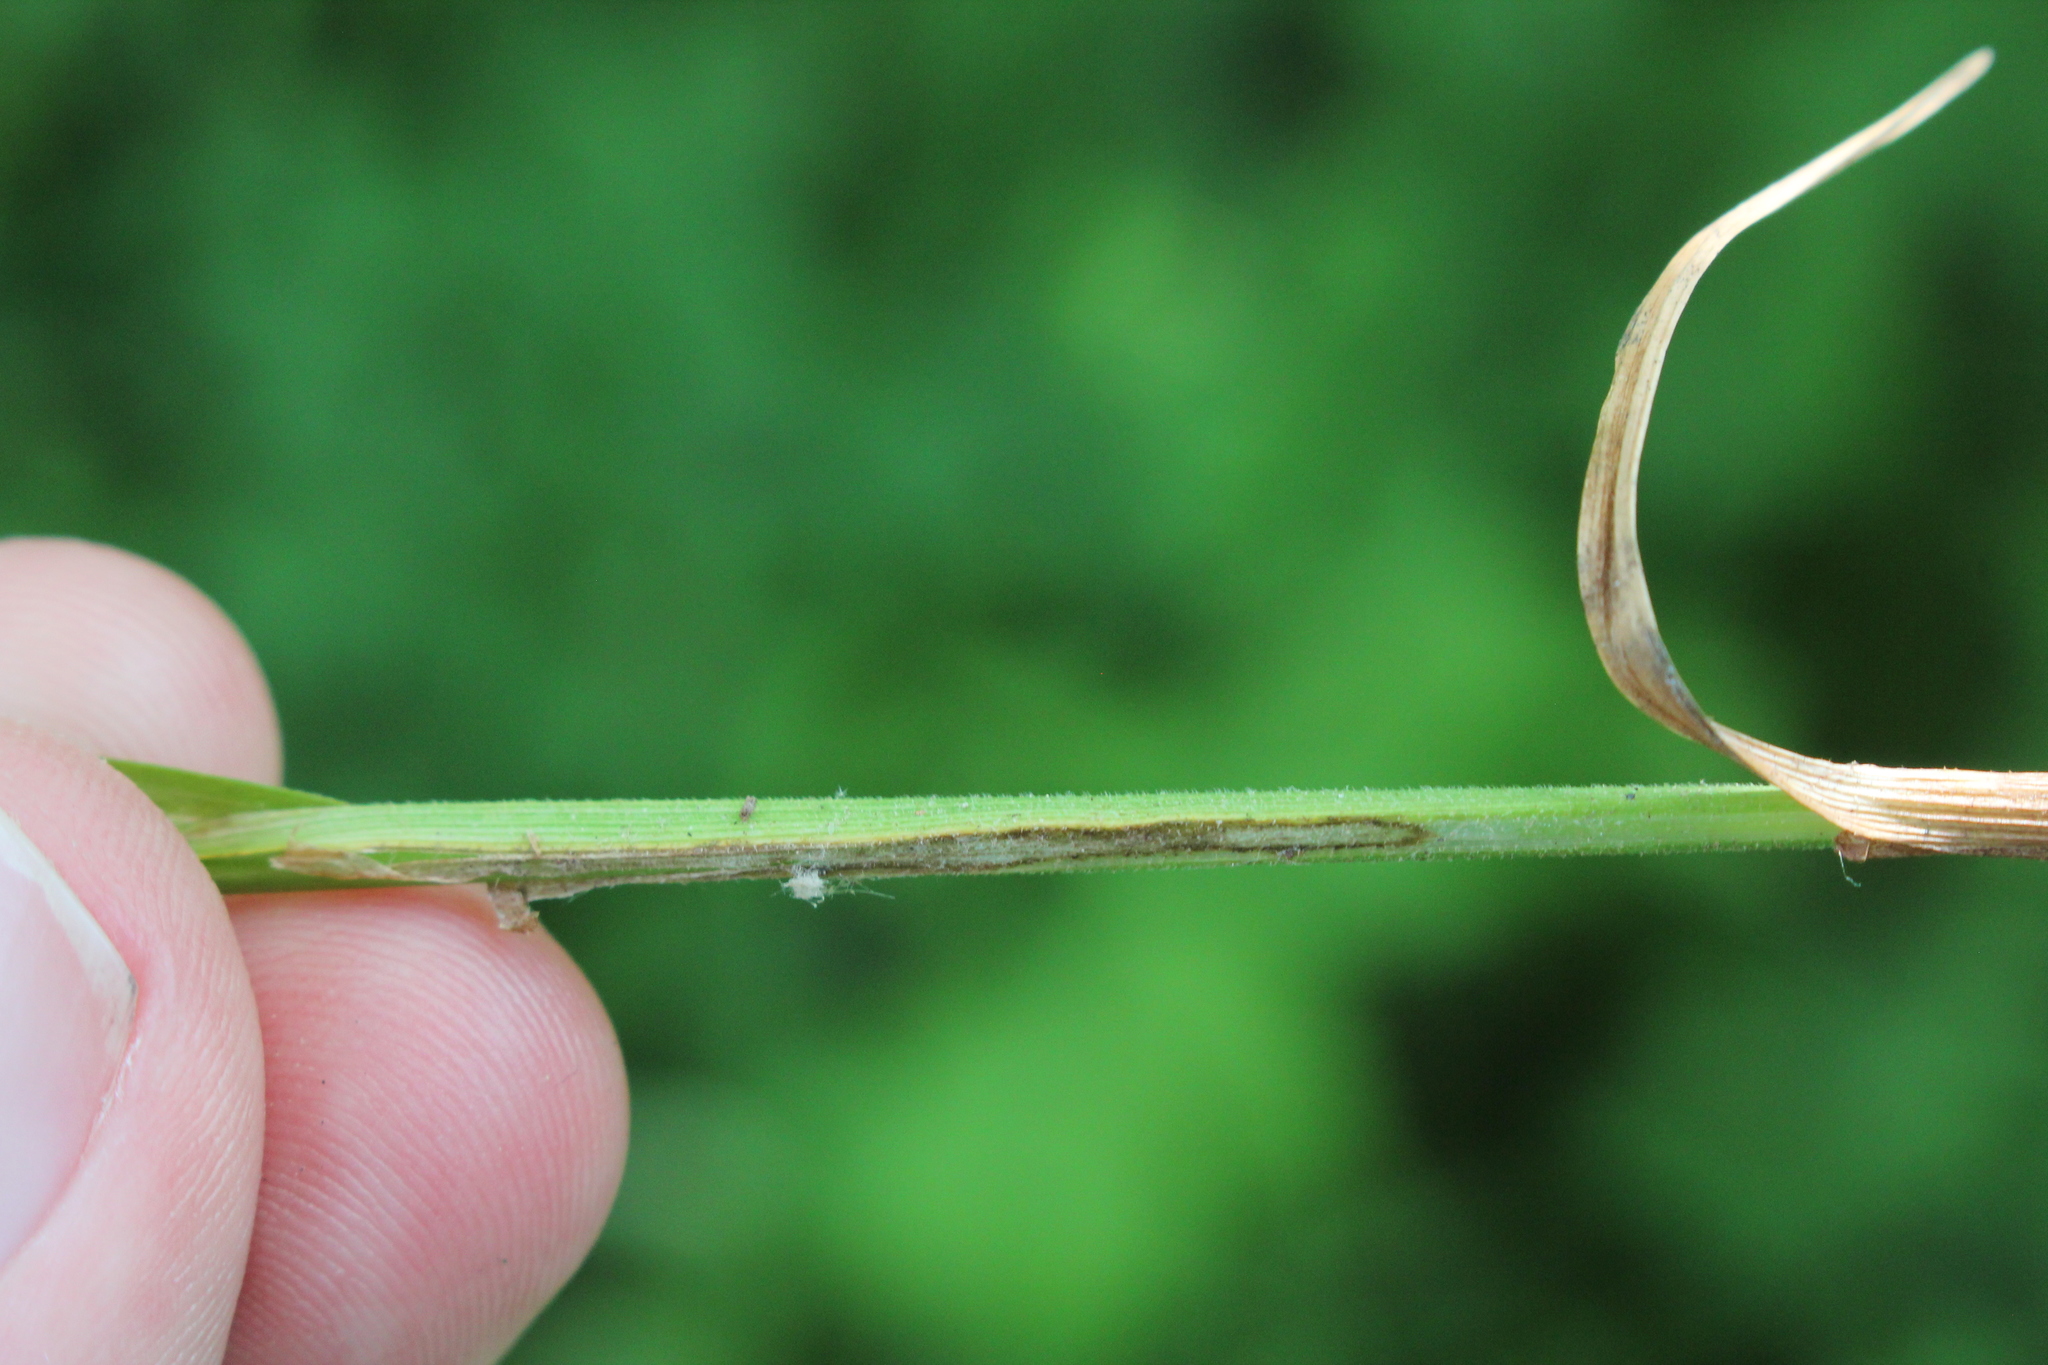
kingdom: Plantae
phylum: Tracheophyta
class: Liliopsida
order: Poales
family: Cyperaceae
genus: Carex
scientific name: Carex hitchcockiana
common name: Hairy grey sedge
